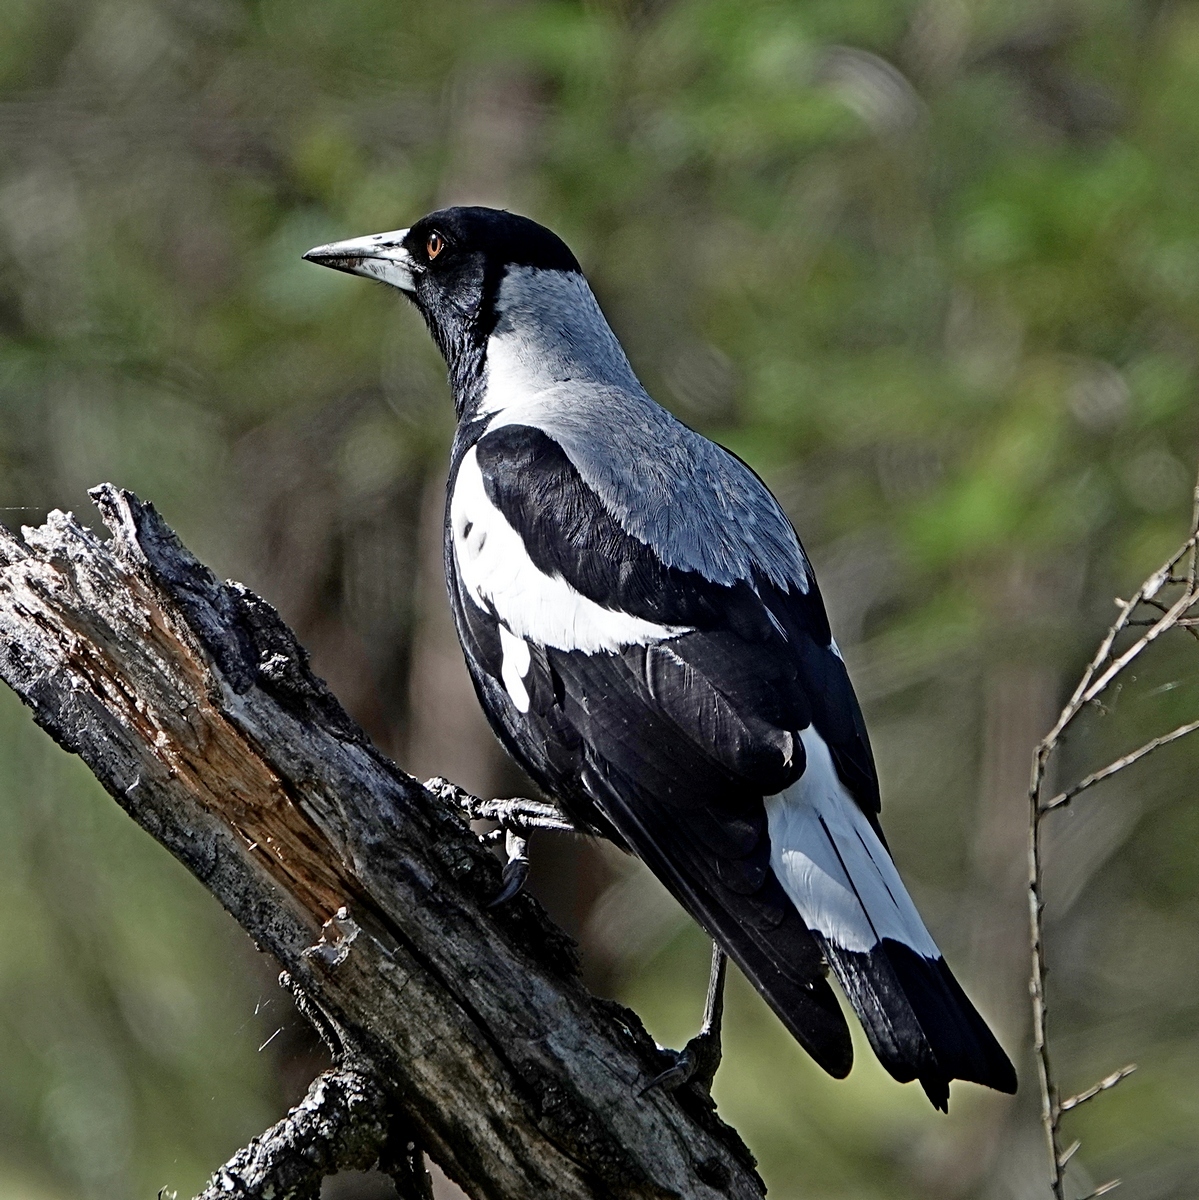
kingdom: Animalia
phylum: Chordata
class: Aves
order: Passeriformes
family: Cracticidae
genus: Gymnorhina
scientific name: Gymnorhina tibicen
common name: Australian magpie
